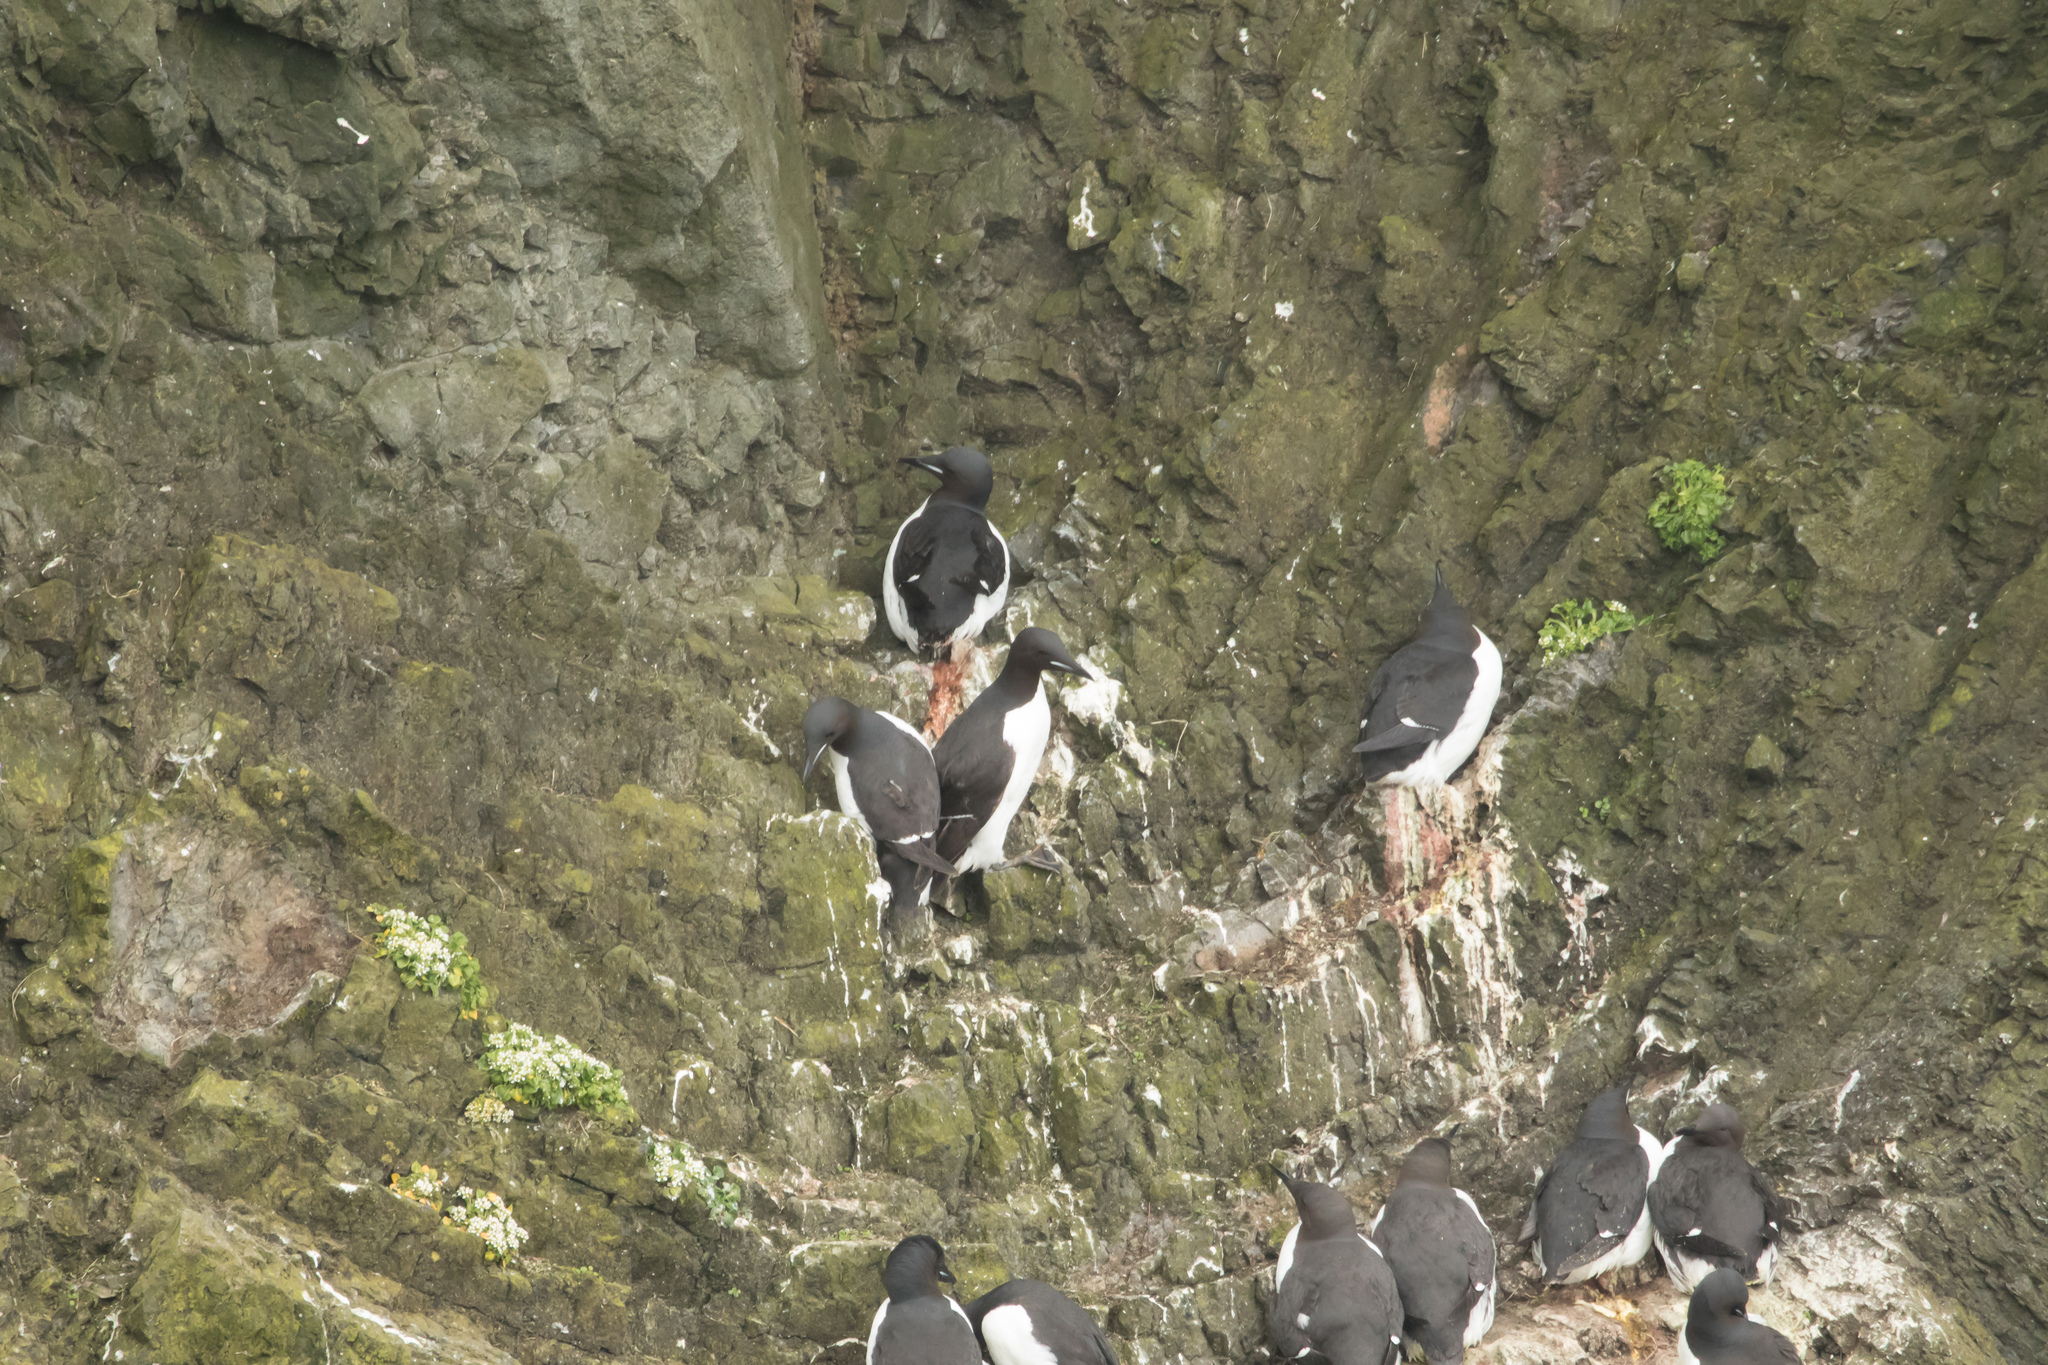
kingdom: Animalia
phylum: Chordata
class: Aves
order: Charadriiformes
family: Alcidae
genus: Uria
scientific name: Uria lomvia
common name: Thick-billed murre
